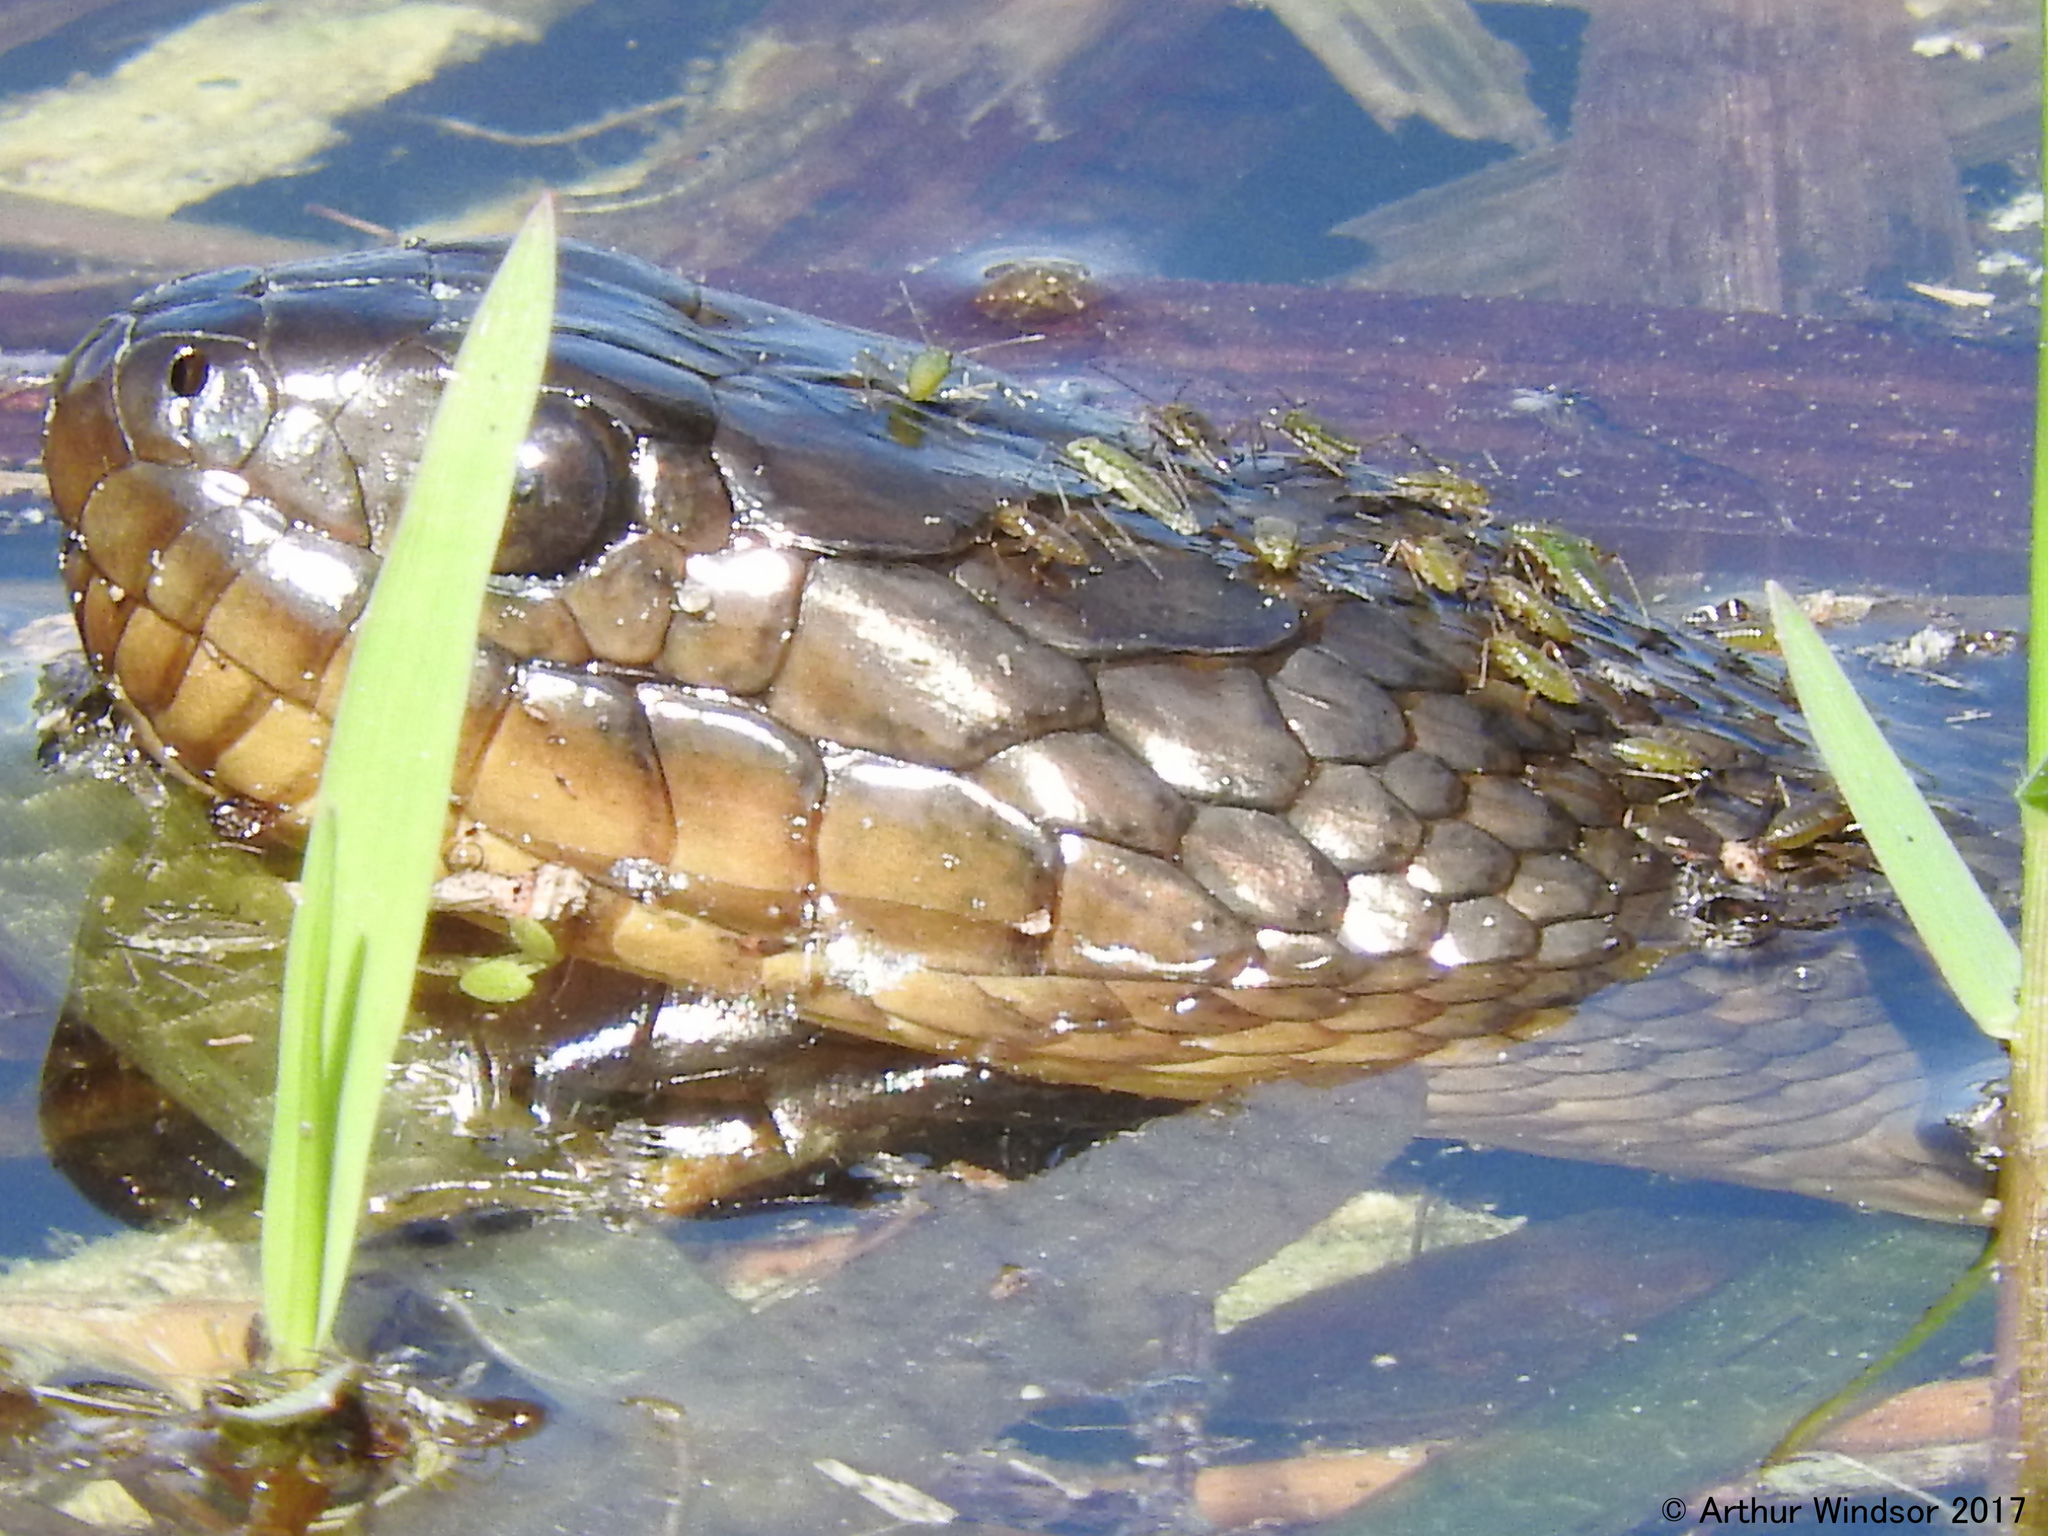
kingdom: Animalia
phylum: Arthropoda
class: Insecta
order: Hemiptera
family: Mesoveliidae
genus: Mesovelia
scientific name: Mesovelia
